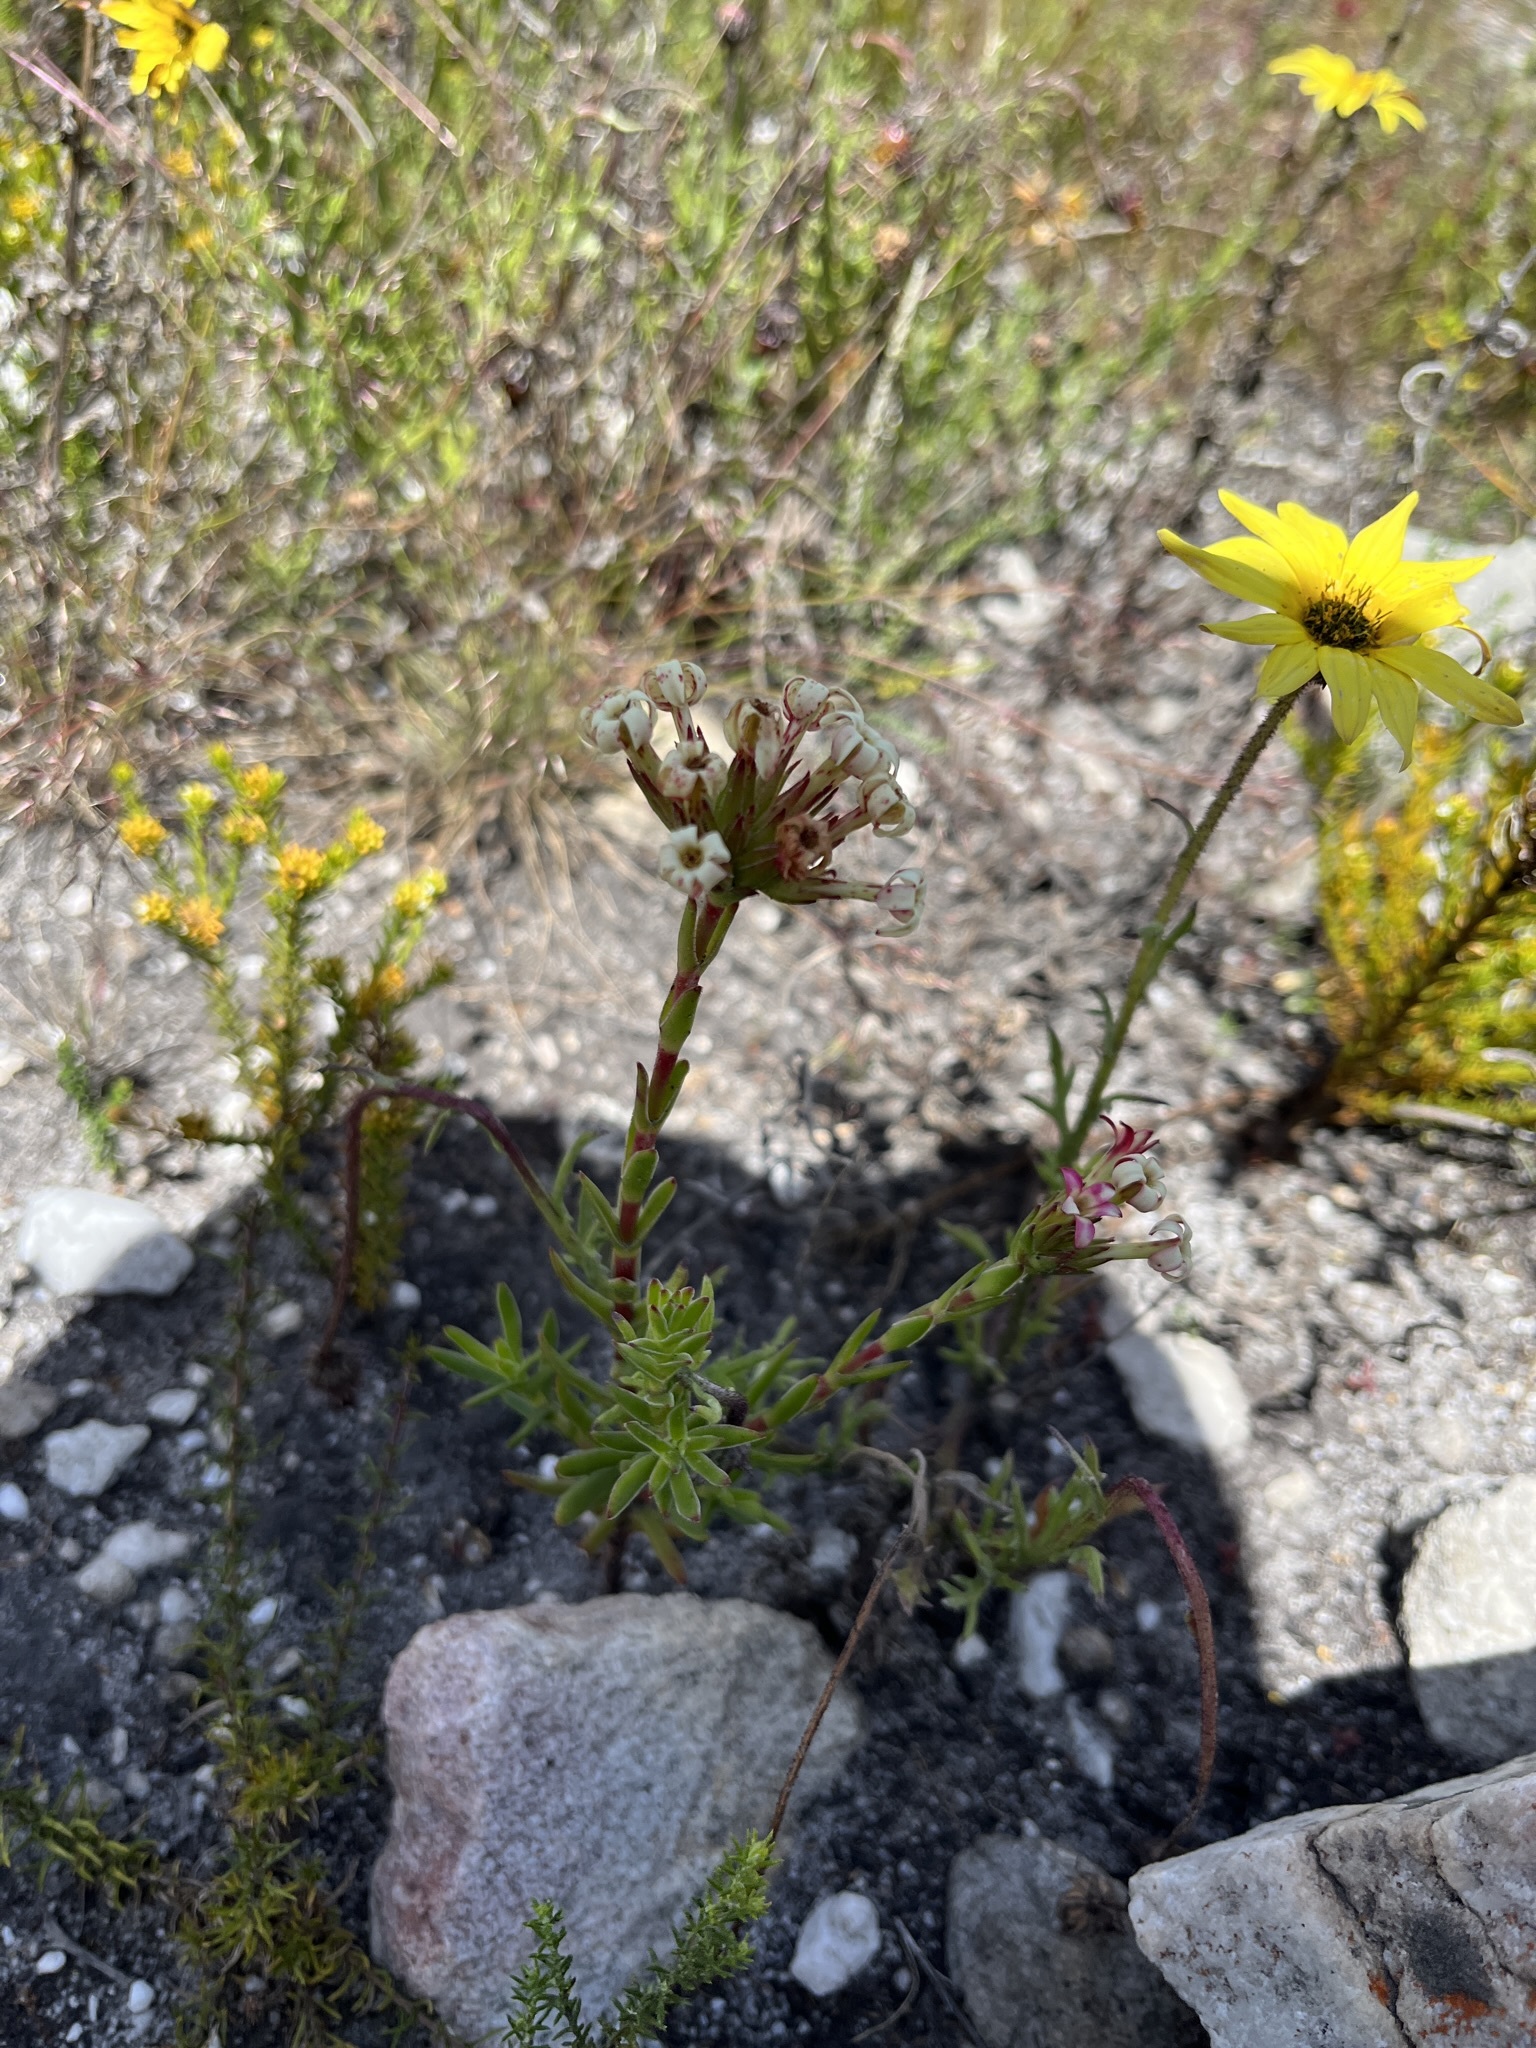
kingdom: Plantae
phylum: Tracheophyta
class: Magnoliopsida
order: Saxifragales
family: Crassulaceae
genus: Crassula
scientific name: Crassula fascicularis
